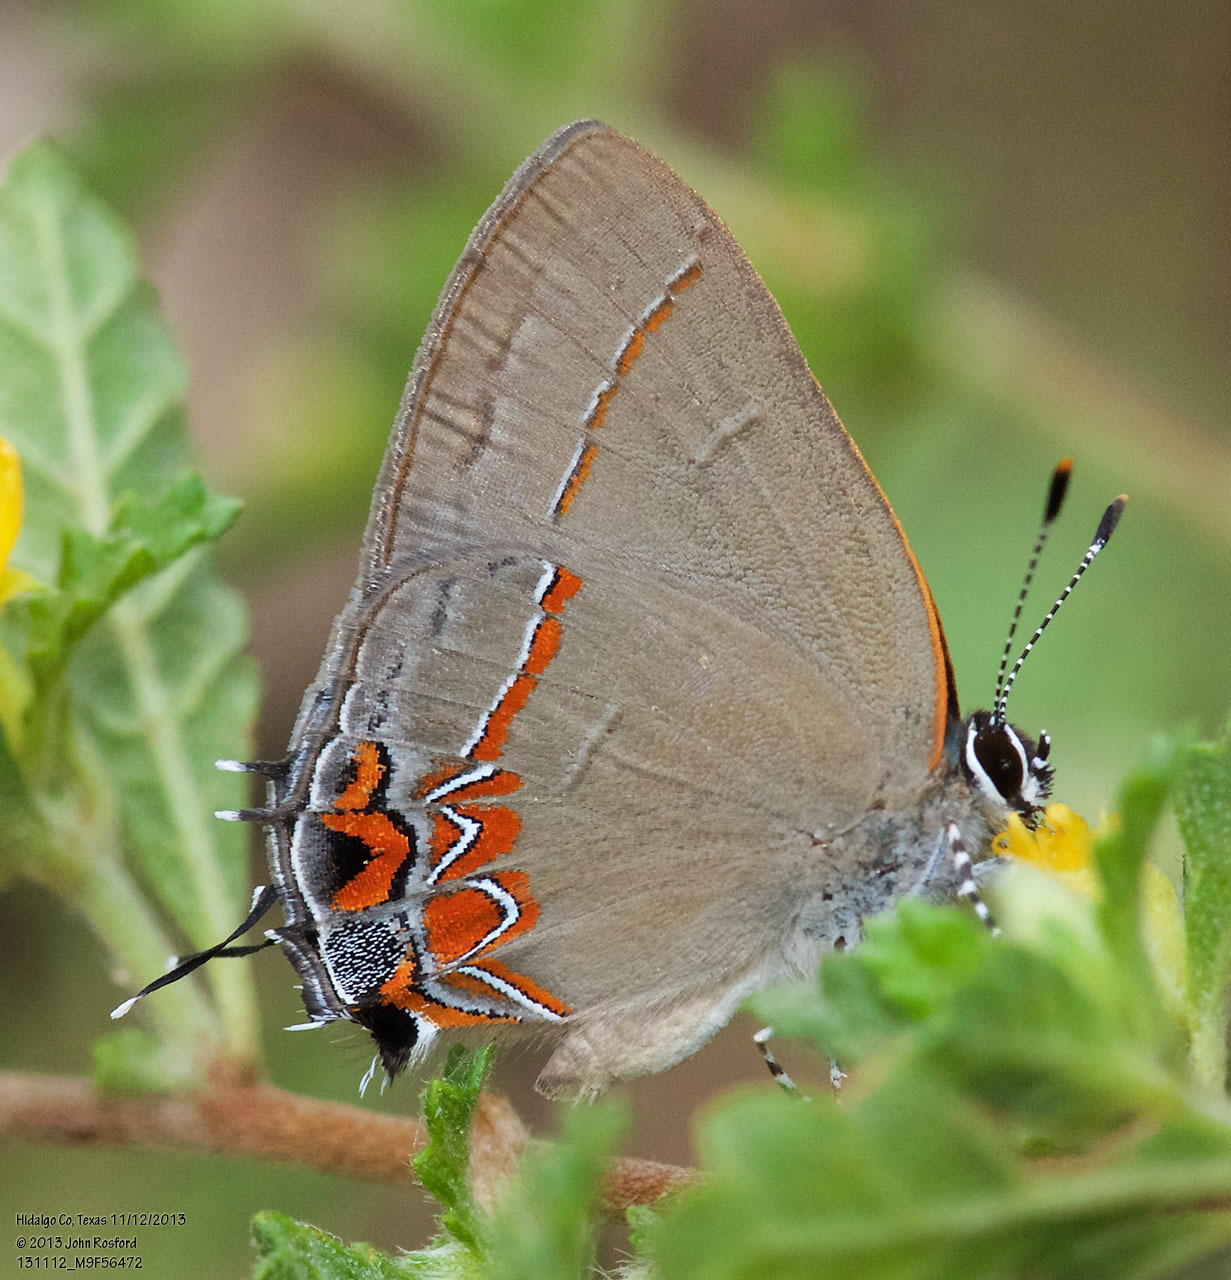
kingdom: Animalia
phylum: Arthropoda
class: Insecta
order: Lepidoptera
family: Lycaenidae
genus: Calycopis
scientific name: Calycopis isobeon
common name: Dusky-blue groundstreak
